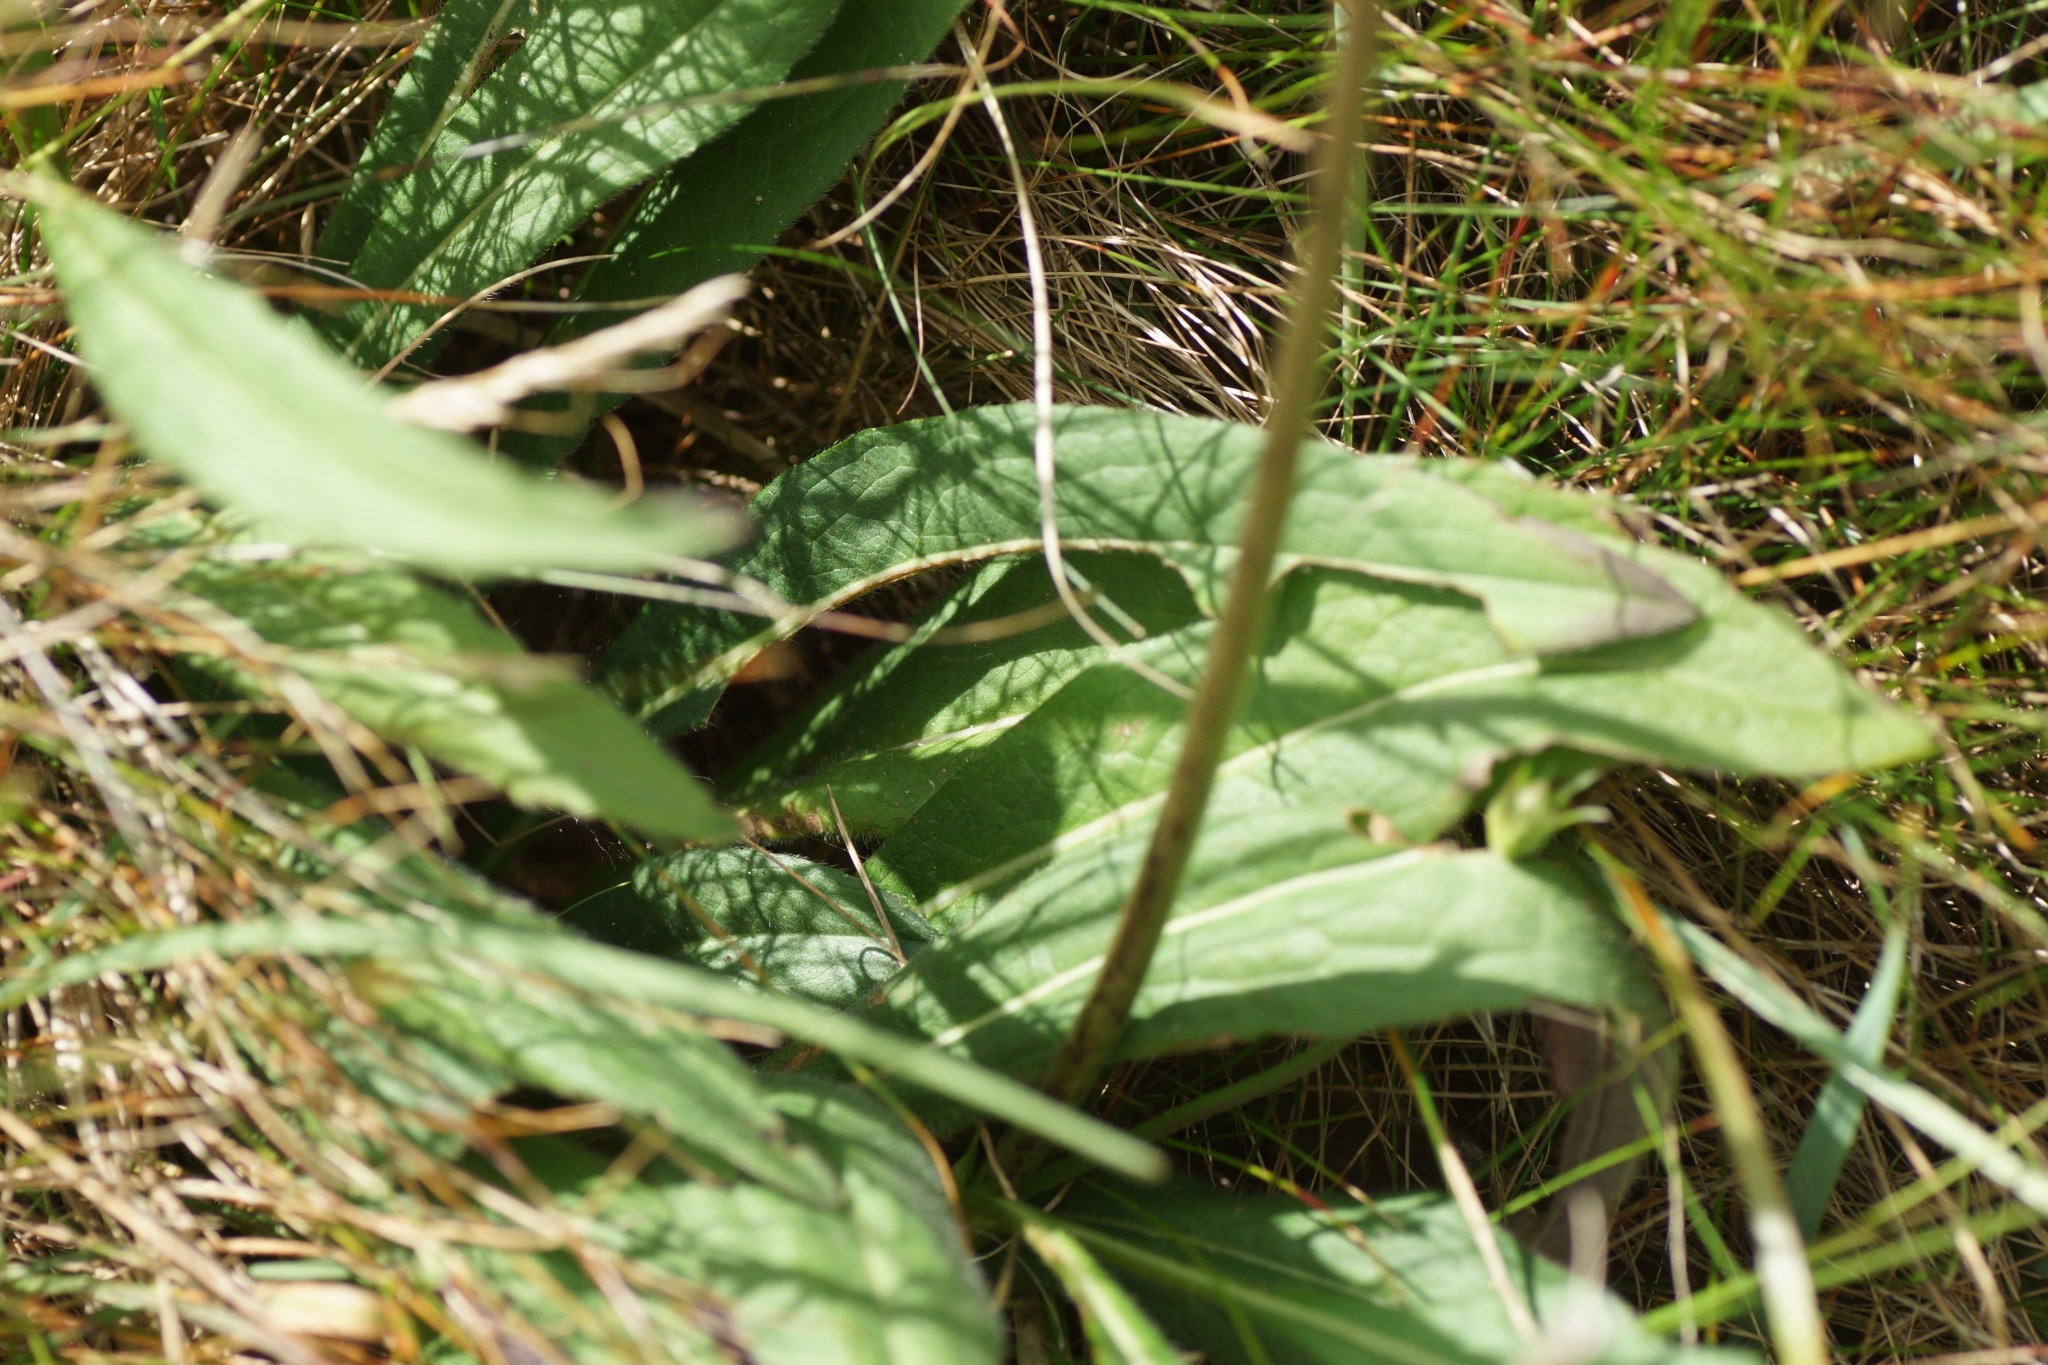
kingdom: Plantae
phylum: Tracheophyta
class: Magnoliopsida
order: Dipsacales
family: Caprifoliaceae
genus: Succisa
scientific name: Succisa pratensis
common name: Devil's-bit
